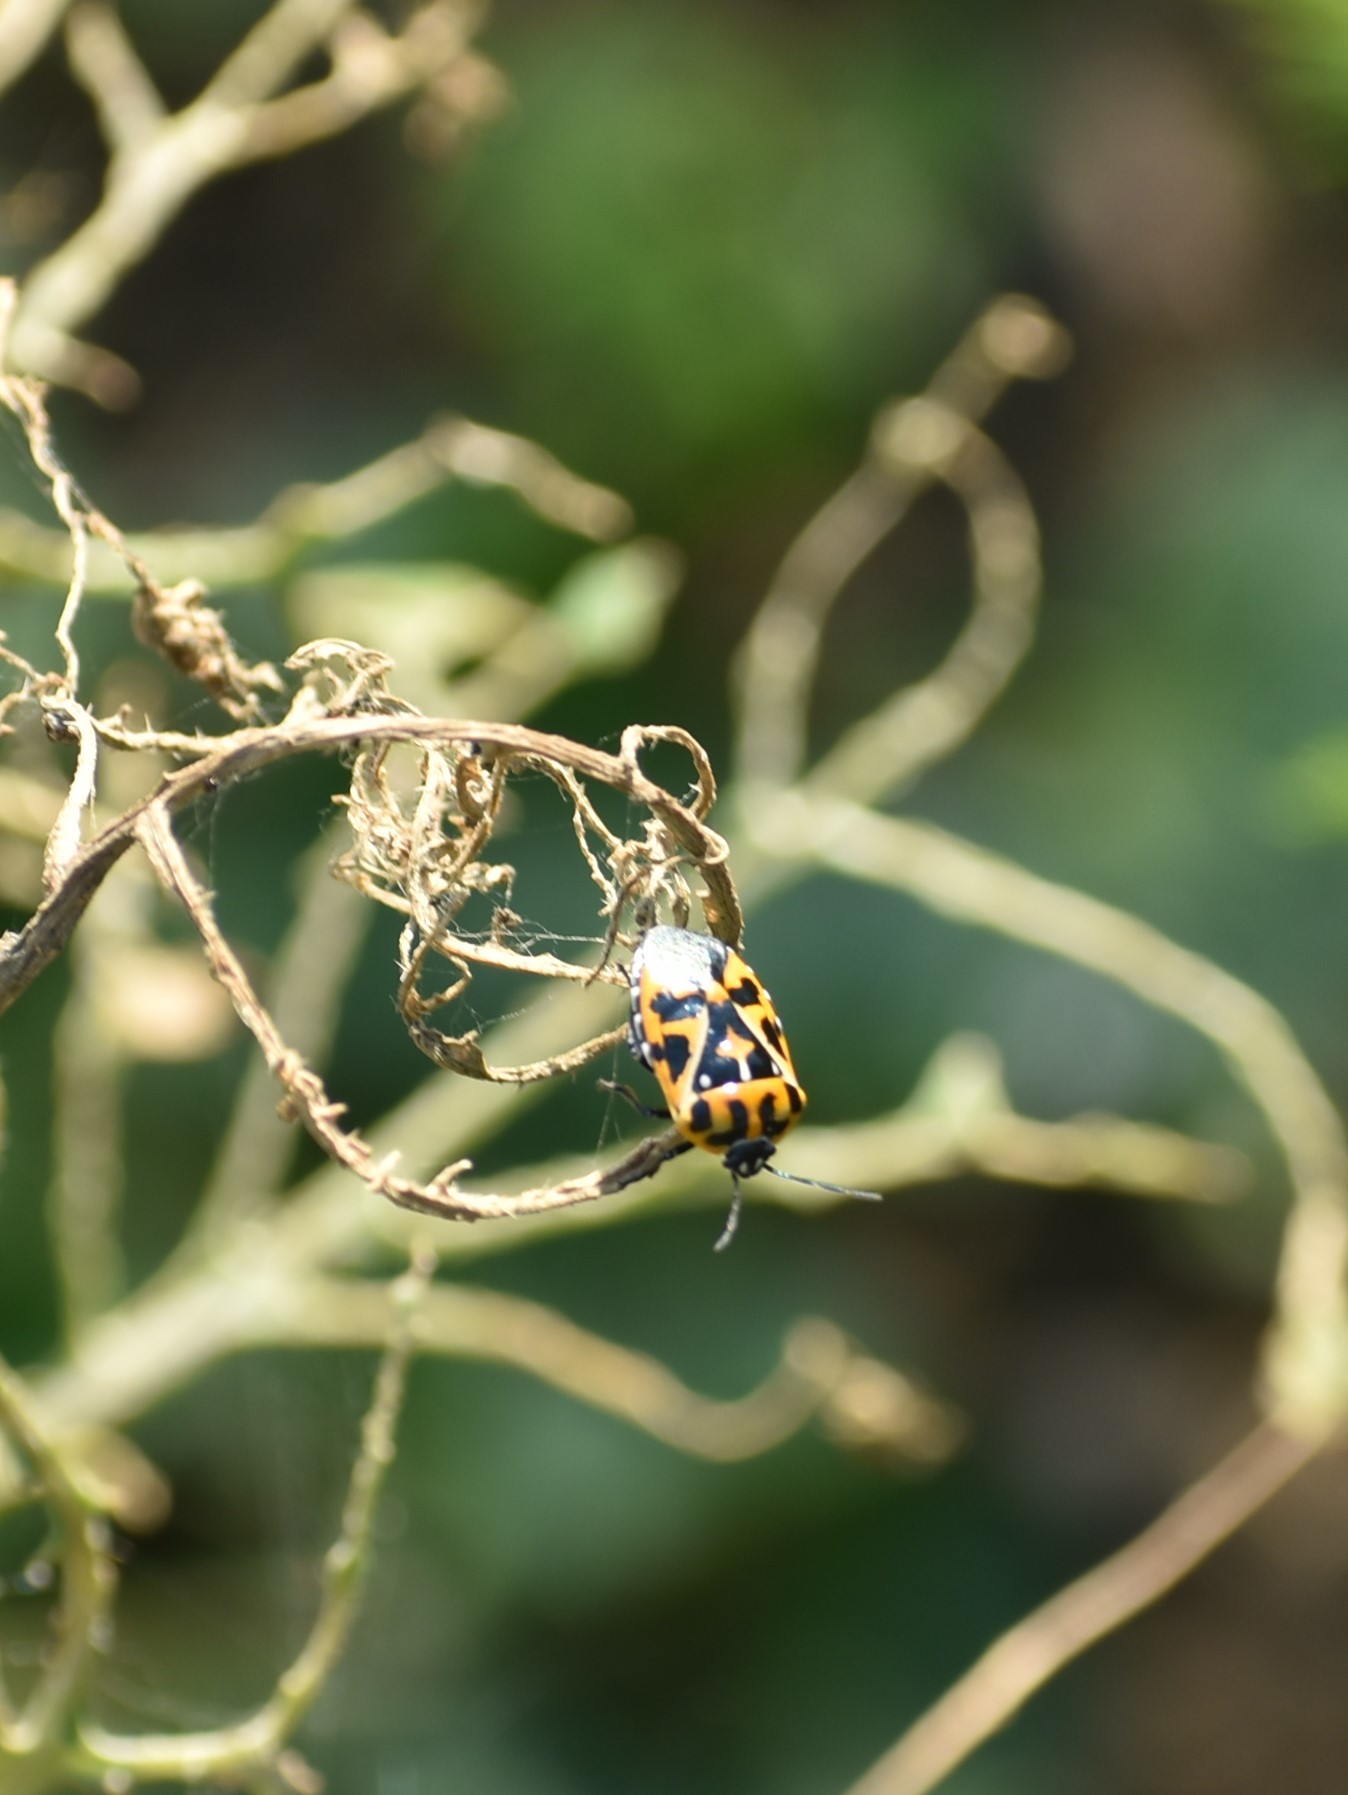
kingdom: Animalia
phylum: Arthropoda
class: Insecta
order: Hemiptera
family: Pentatomidae
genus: Murgantia
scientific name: Murgantia histrionica
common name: Harlequin bug
